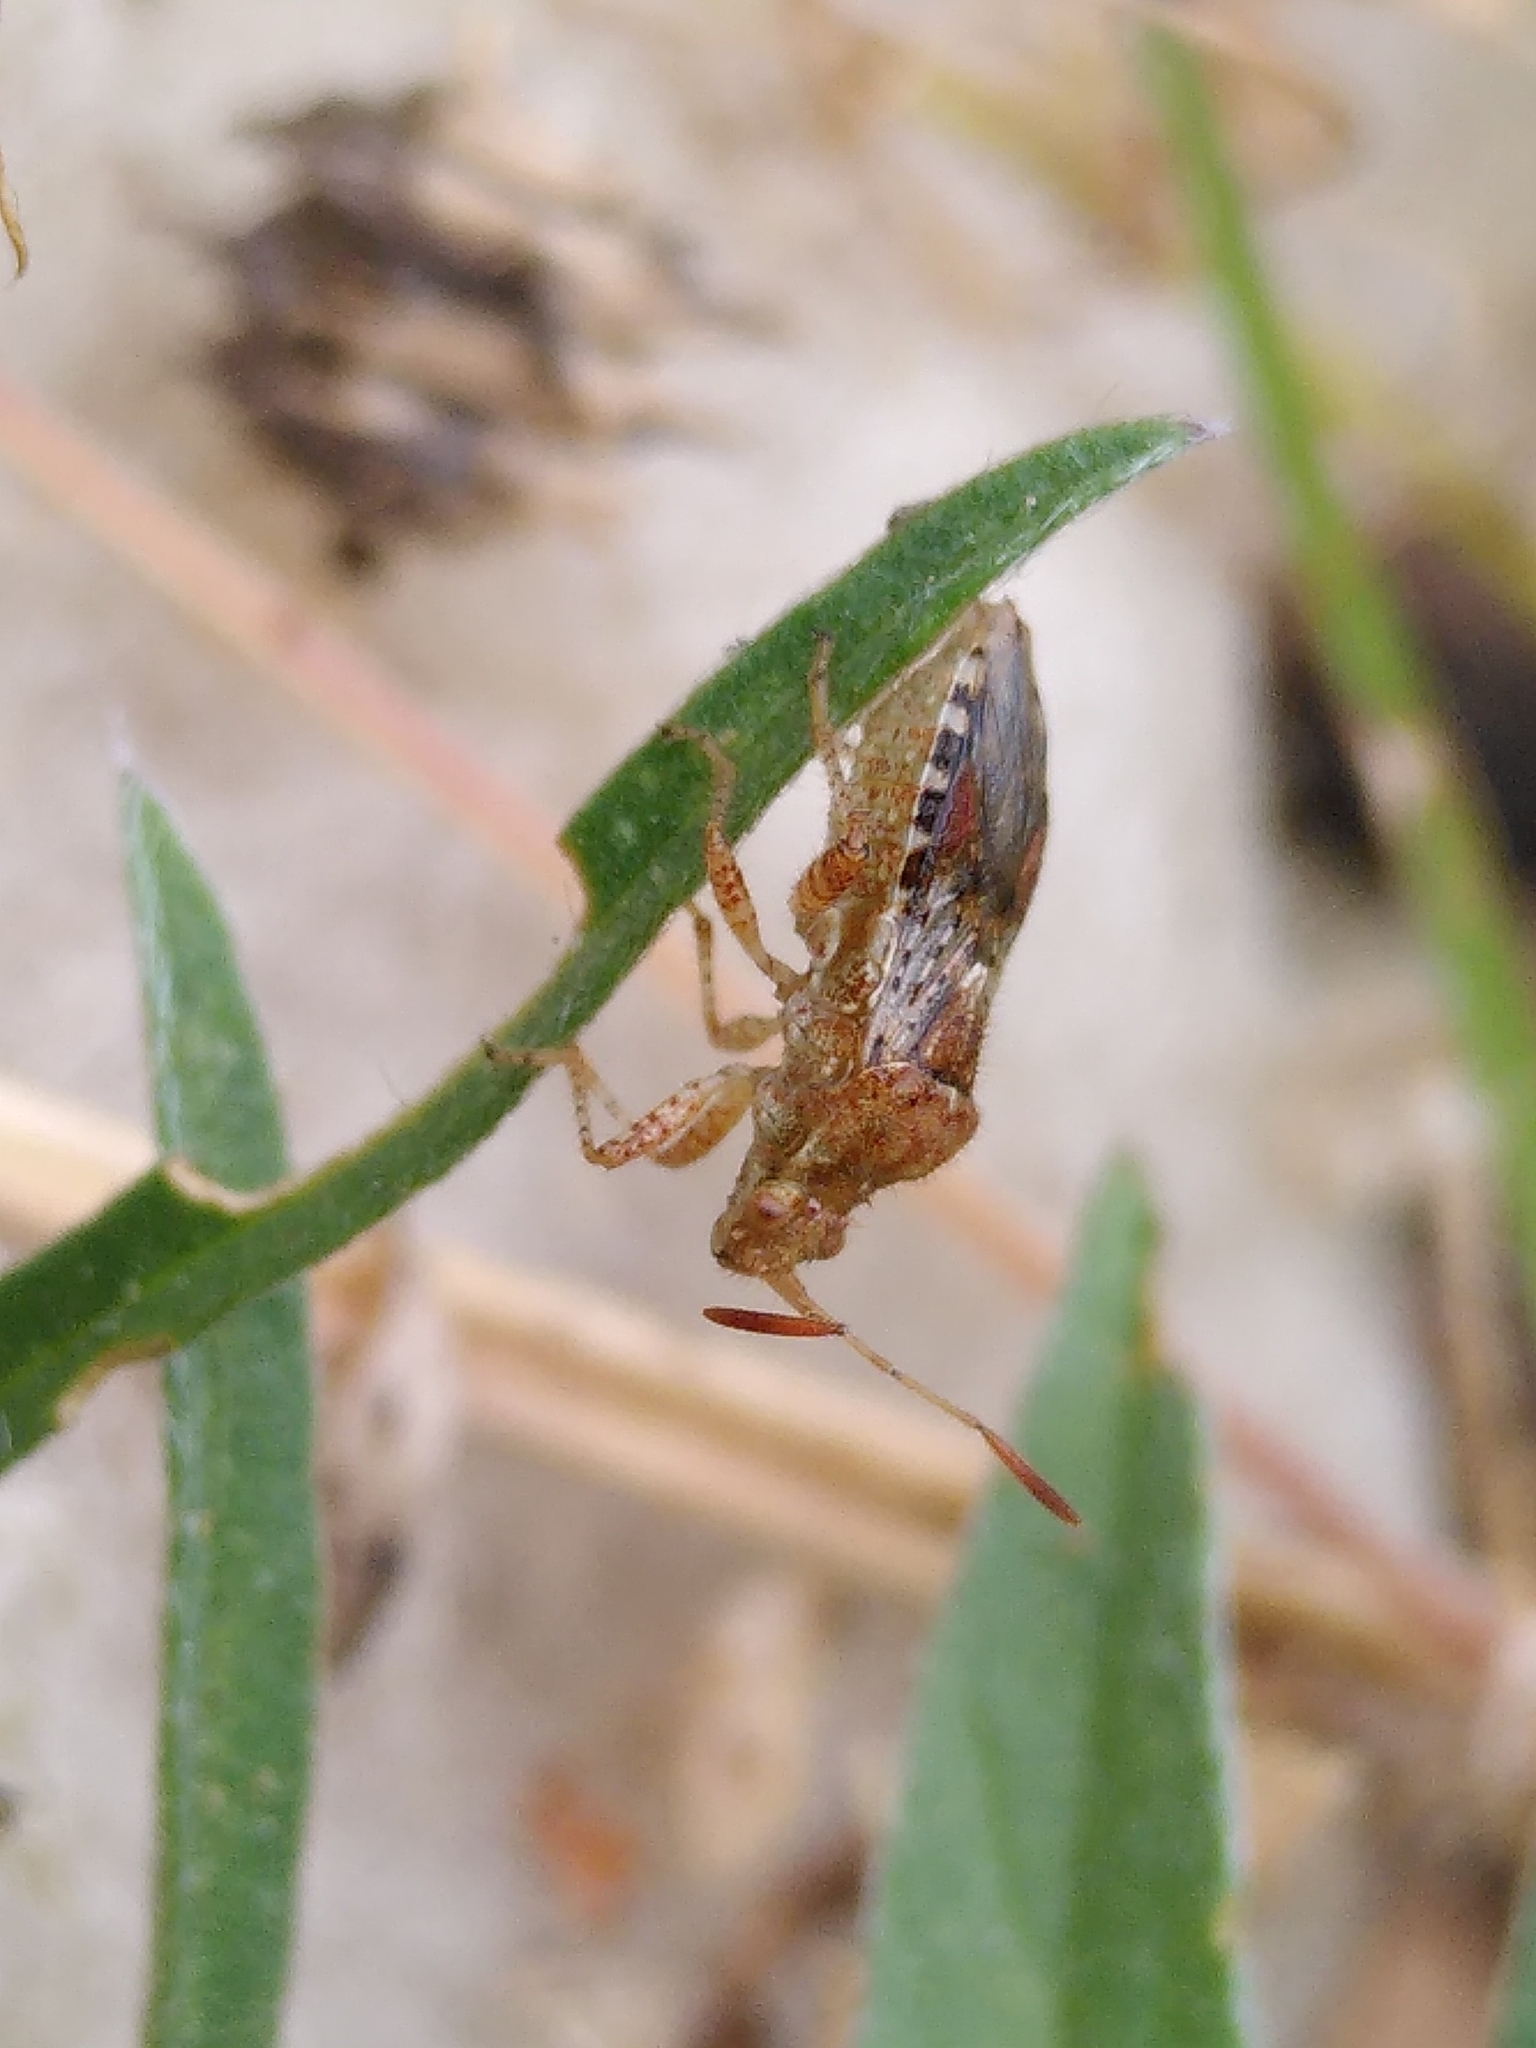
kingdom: Animalia
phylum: Arthropoda
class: Insecta
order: Hemiptera
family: Rhopalidae
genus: Rhopalus
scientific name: Rhopalus subrufus
